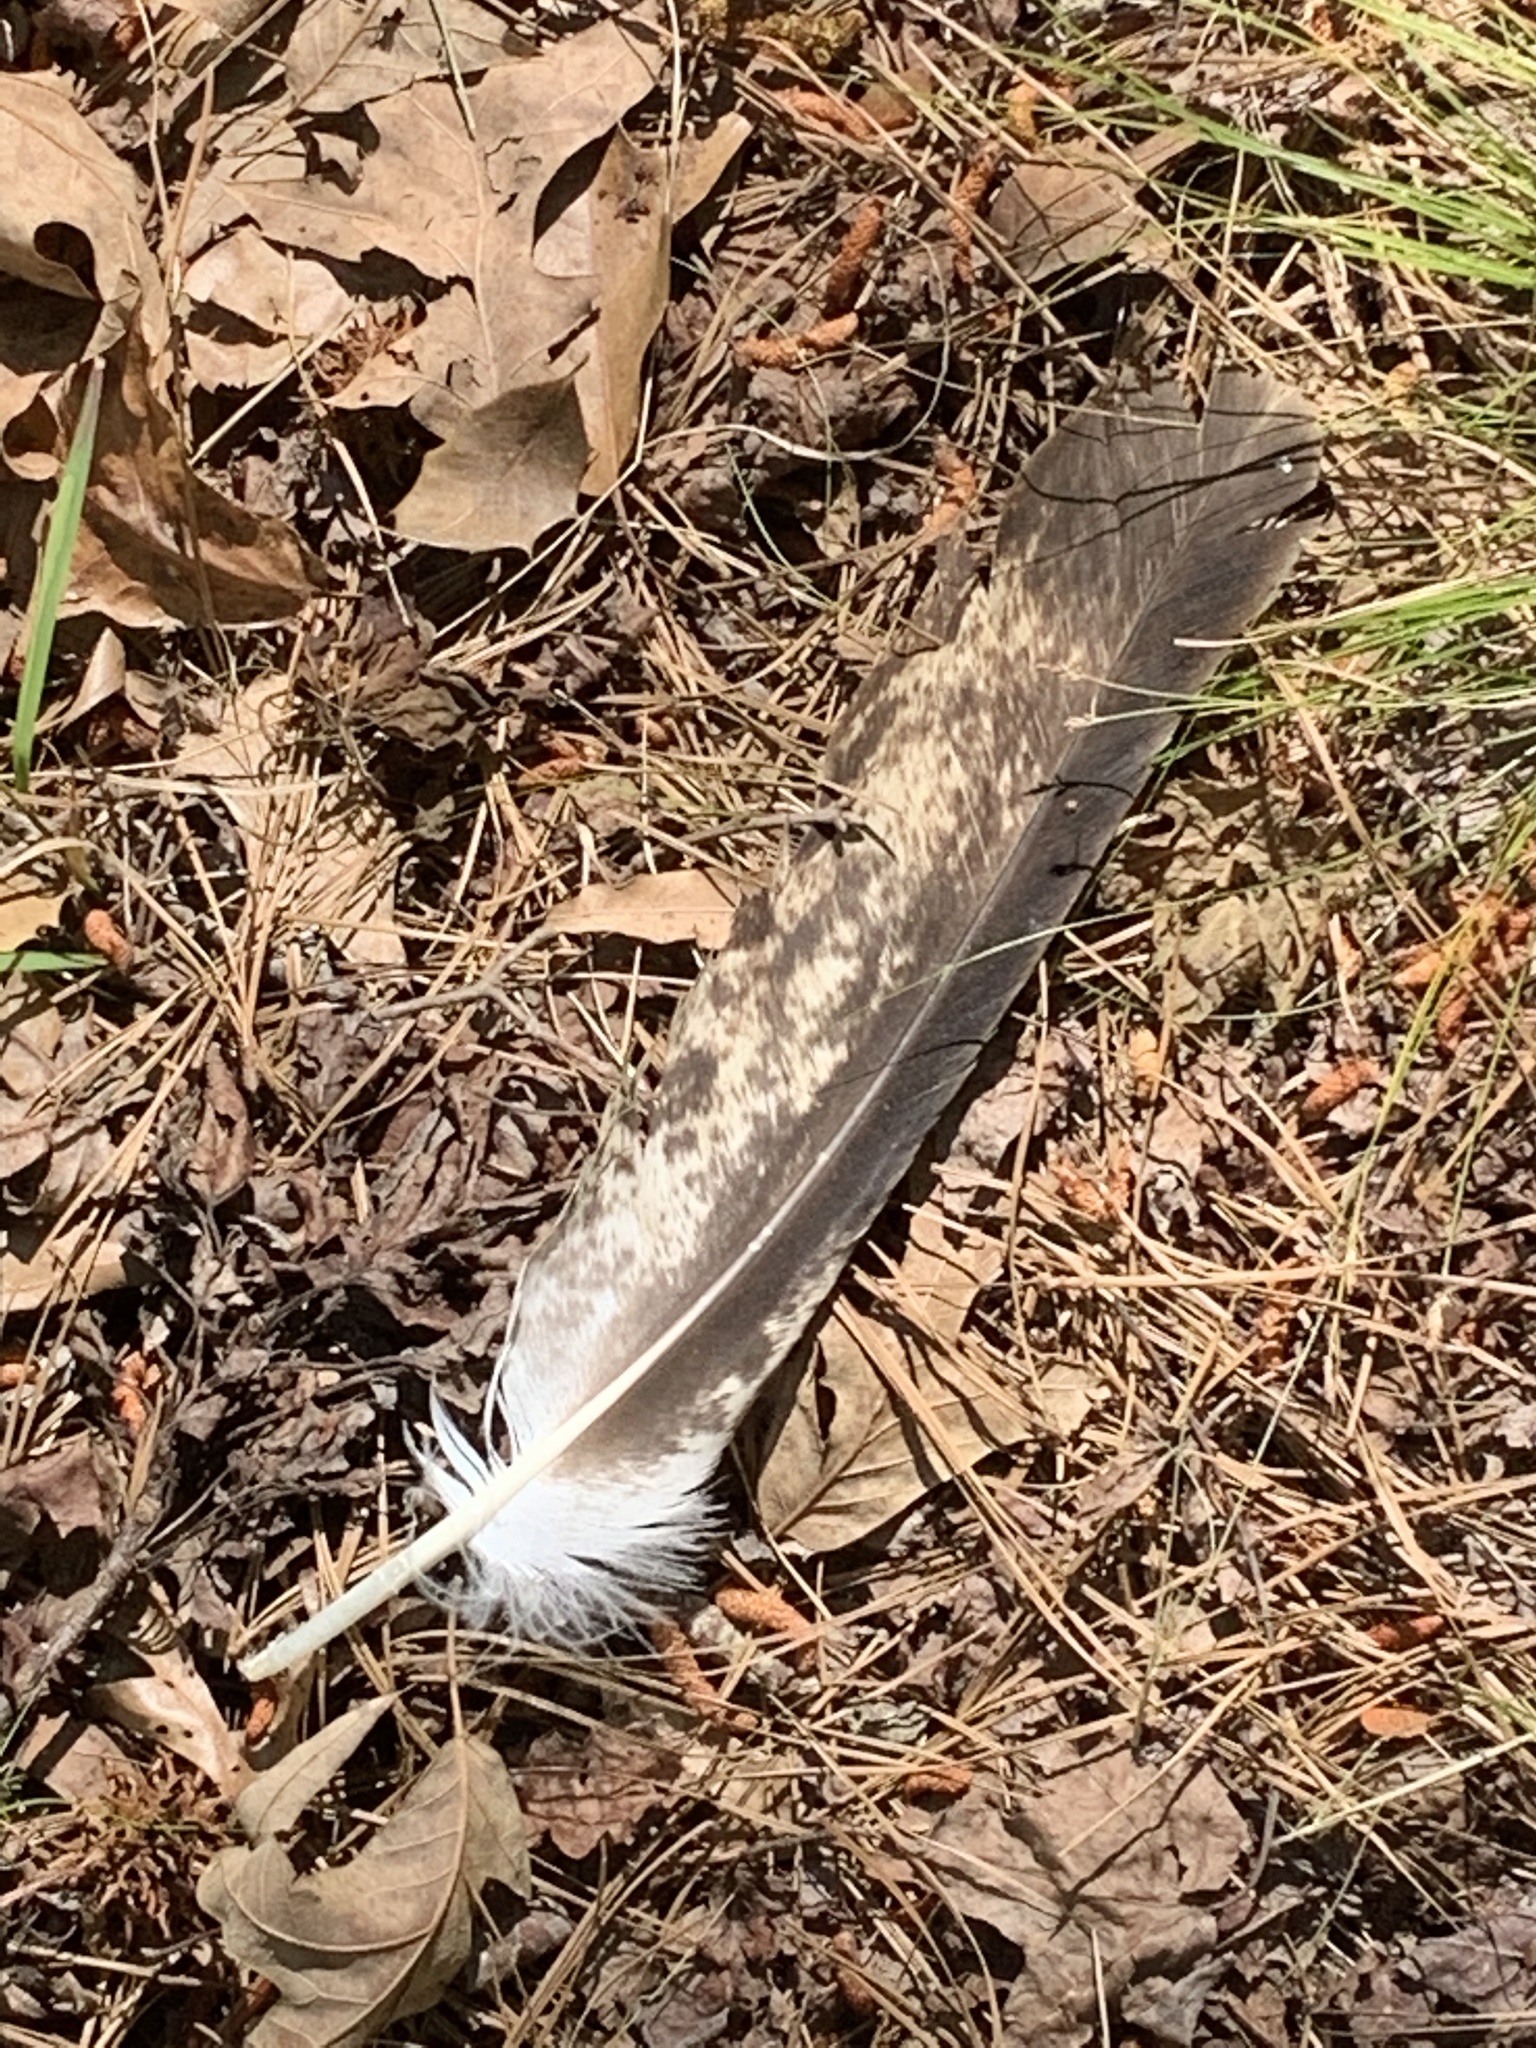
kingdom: Animalia
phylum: Chordata
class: Aves
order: Accipitriformes
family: Accipitridae
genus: Haliaeetus
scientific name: Haliaeetus leucocephalus
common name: Bald eagle
